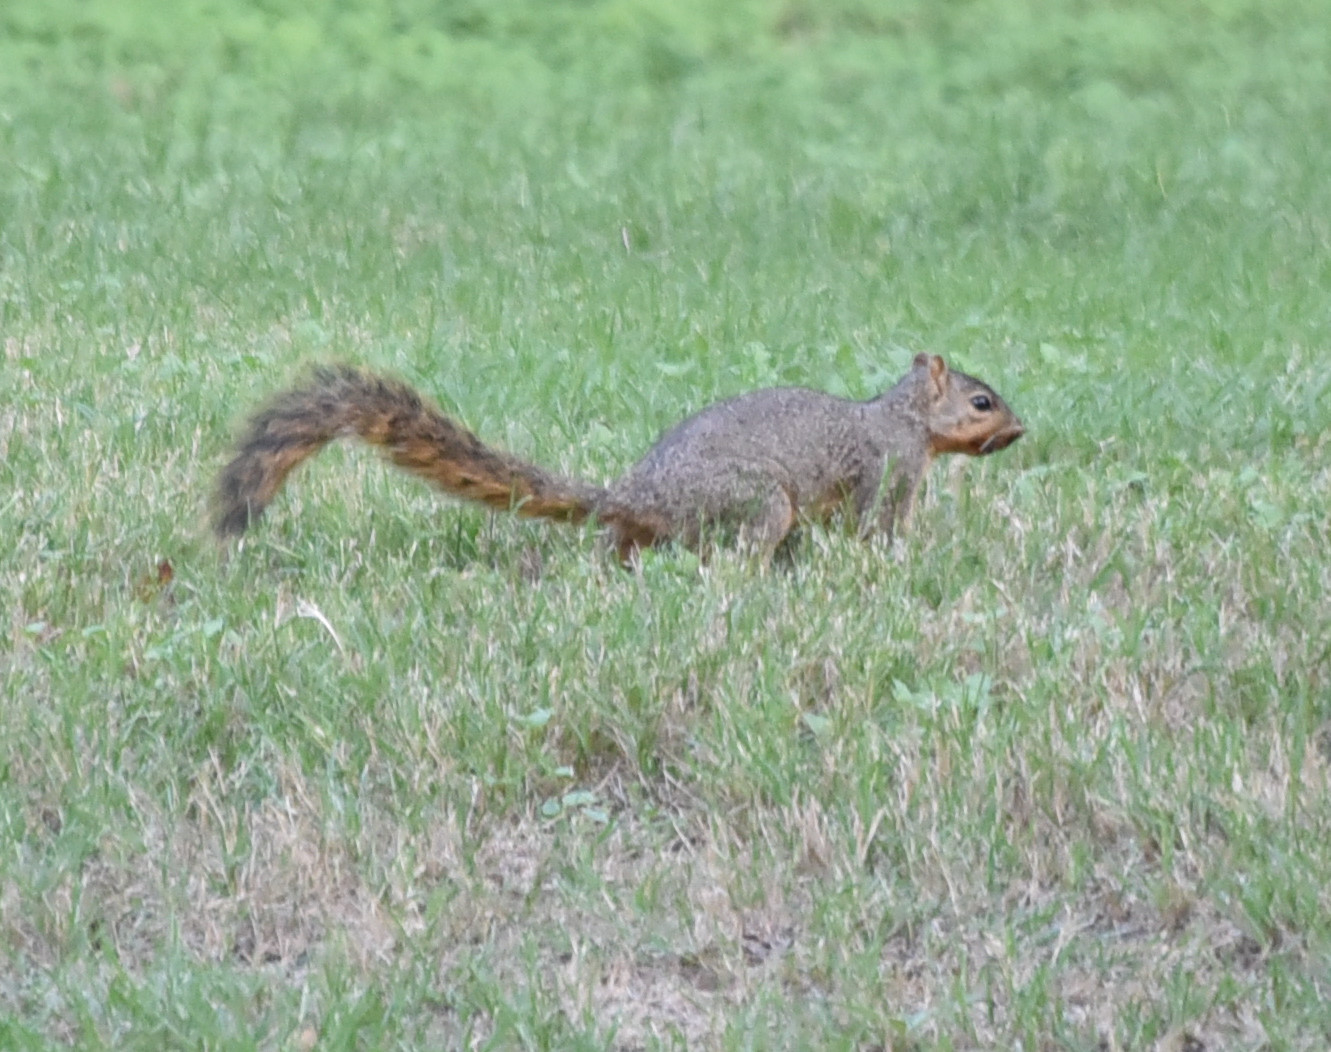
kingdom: Animalia
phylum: Chordata
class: Mammalia
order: Rodentia
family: Sciuridae
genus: Sciurus
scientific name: Sciurus niger
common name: Fox squirrel
